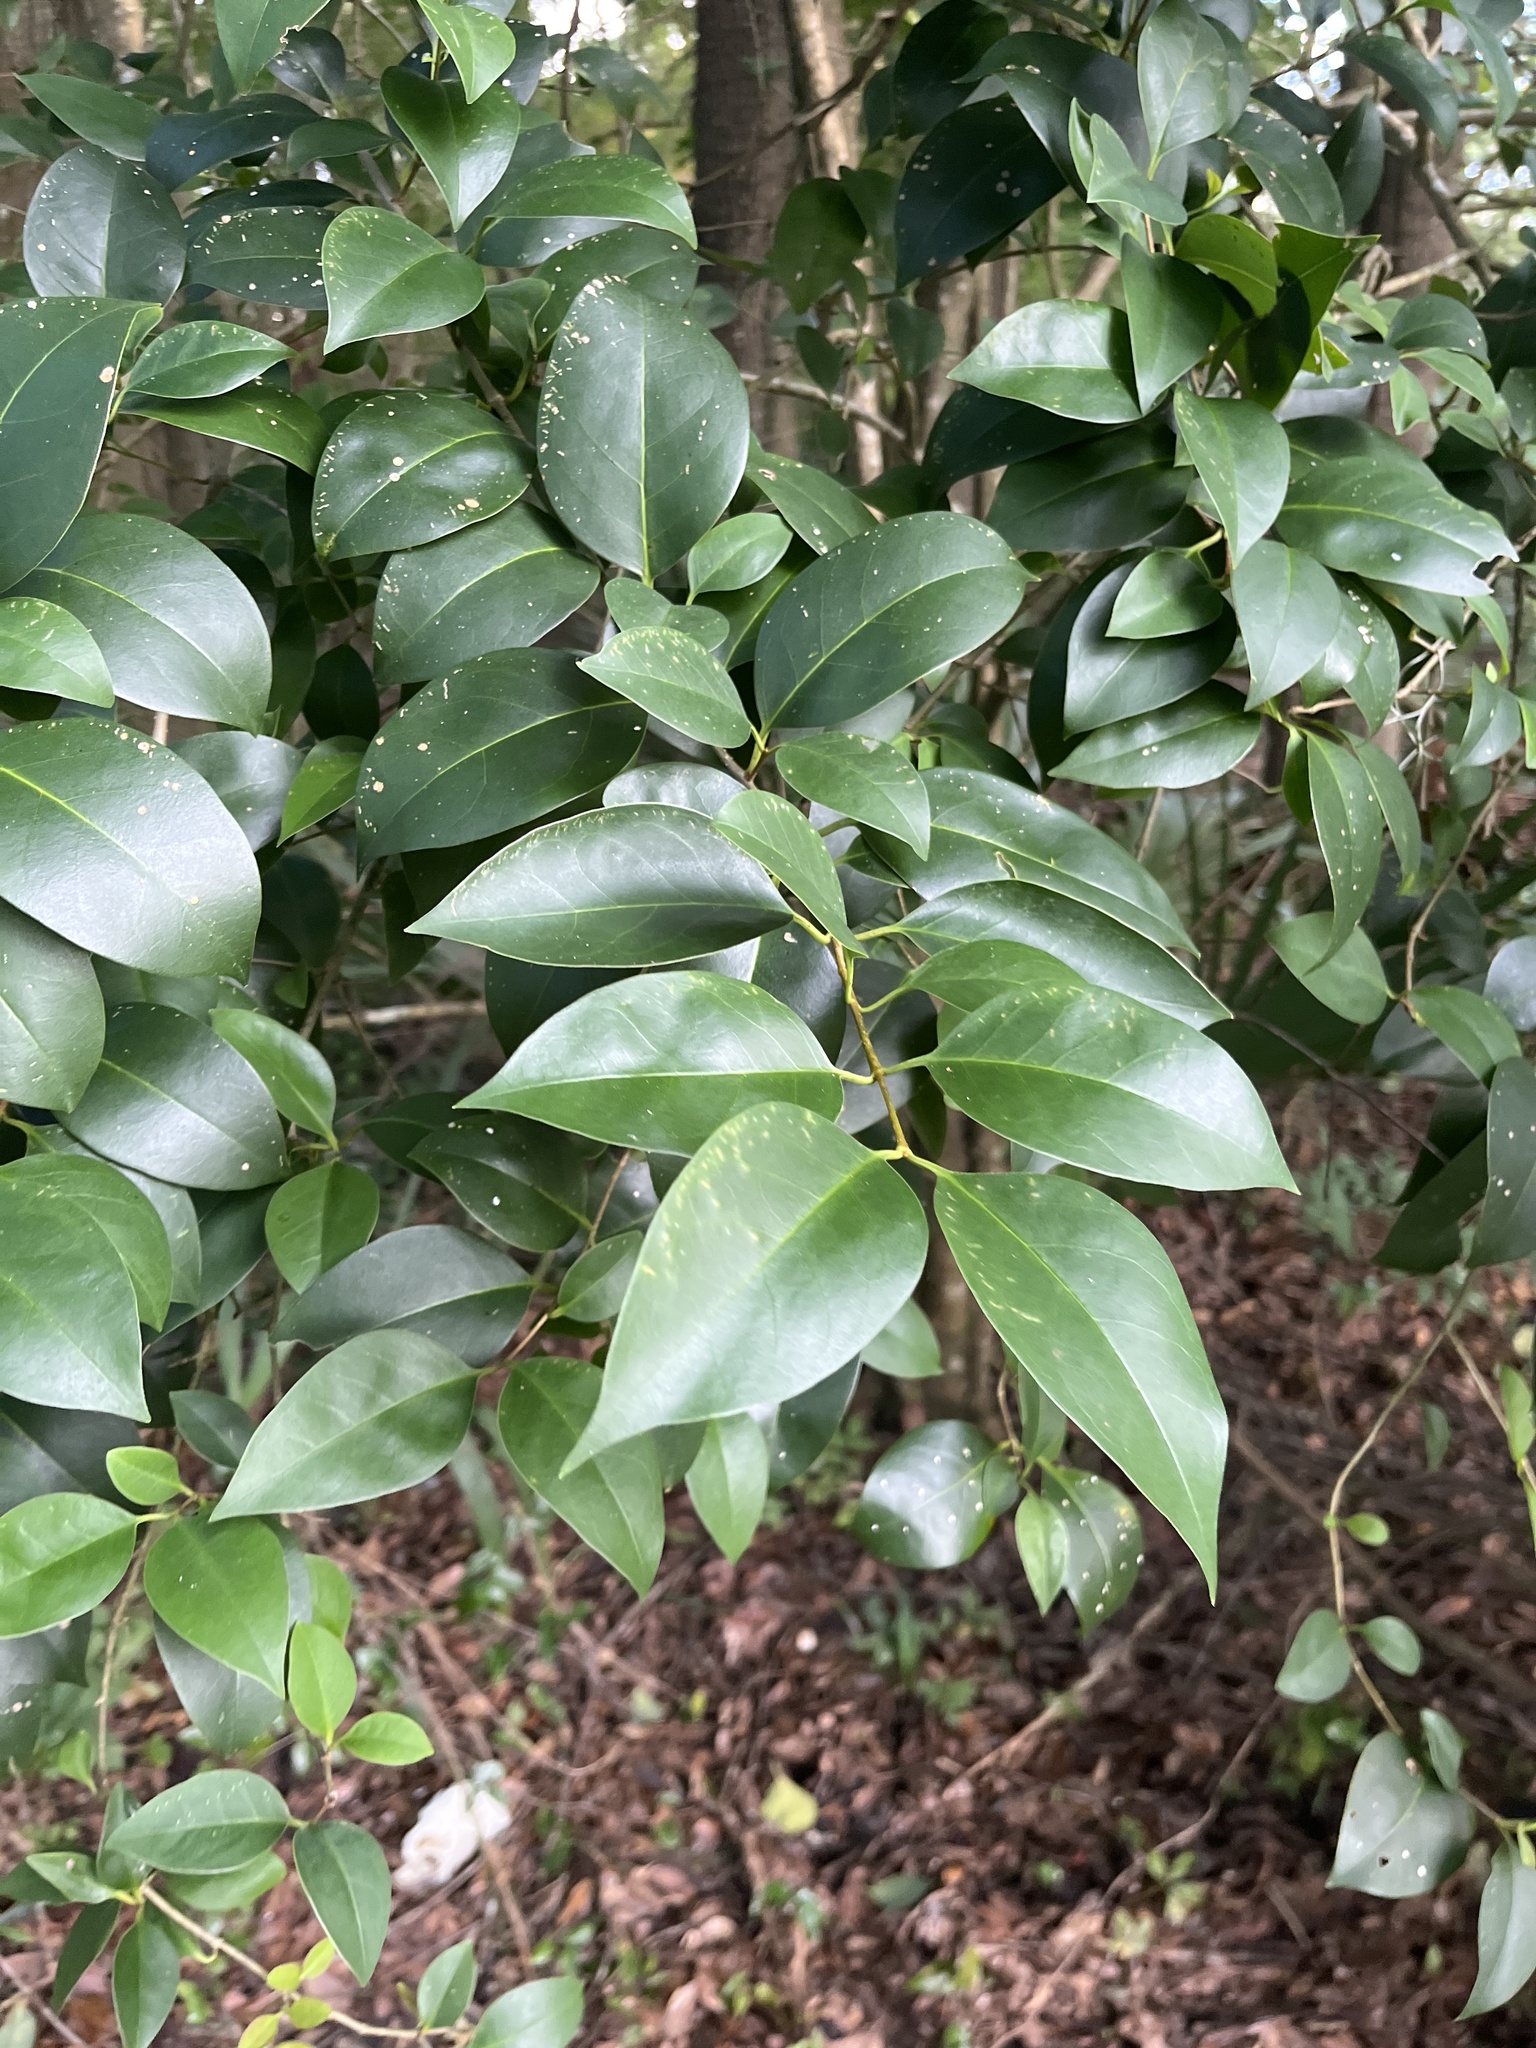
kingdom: Plantae
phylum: Tracheophyta
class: Magnoliopsida
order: Lamiales
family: Oleaceae
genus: Ligustrum
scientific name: Ligustrum lucidum
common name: Glossy privet
